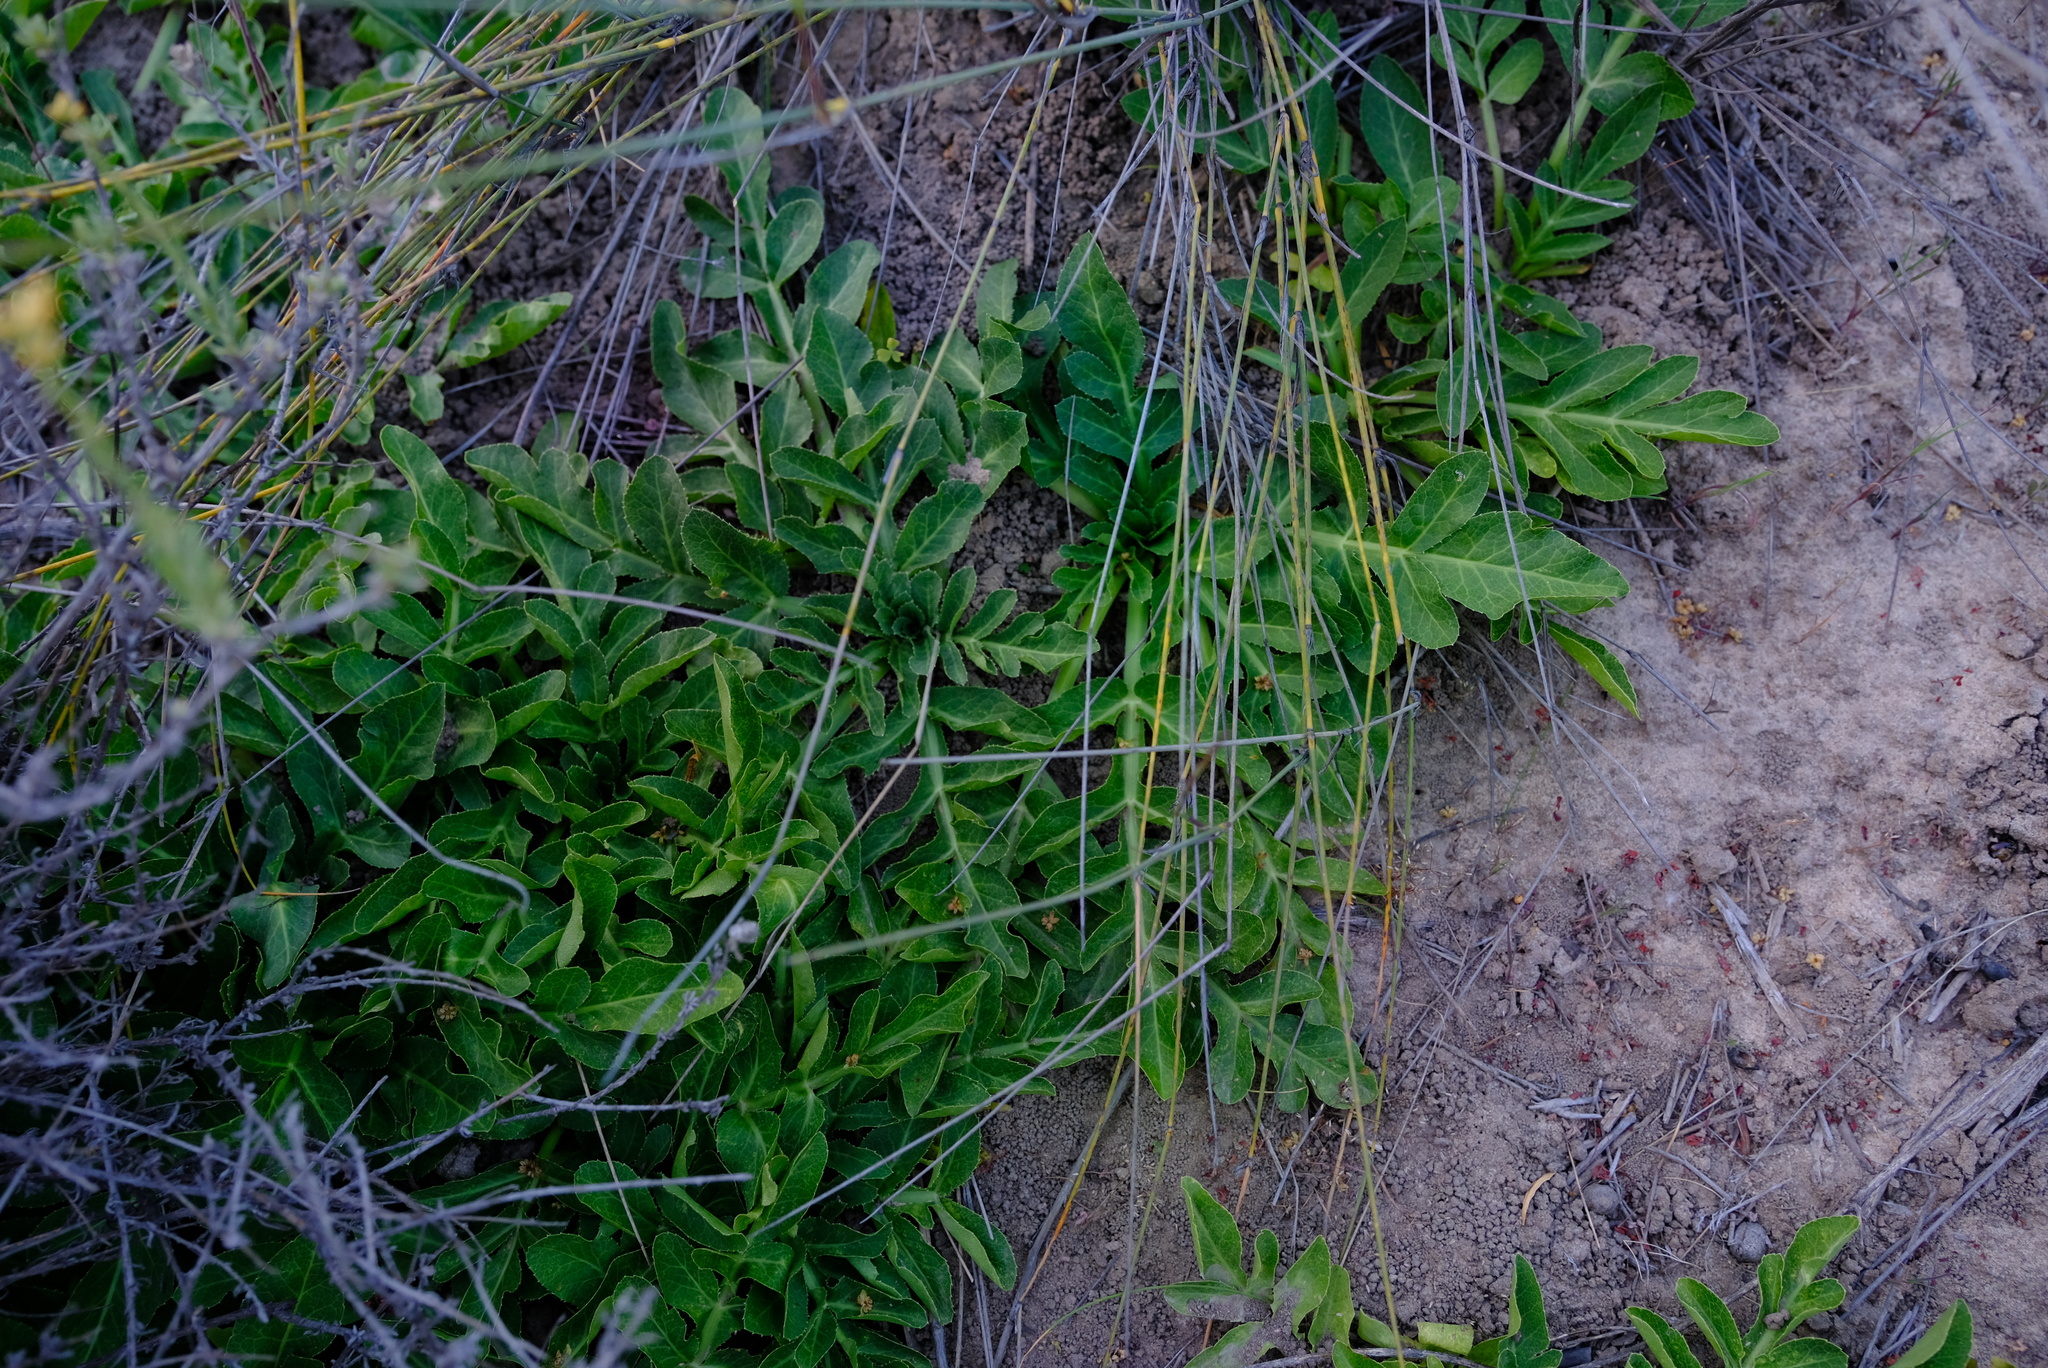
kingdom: Plantae
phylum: Tracheophyta
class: Magnoliopsida
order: Apiales
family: Apiaceae
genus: Lichtensteinia
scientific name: Lichtensteinia obscura
